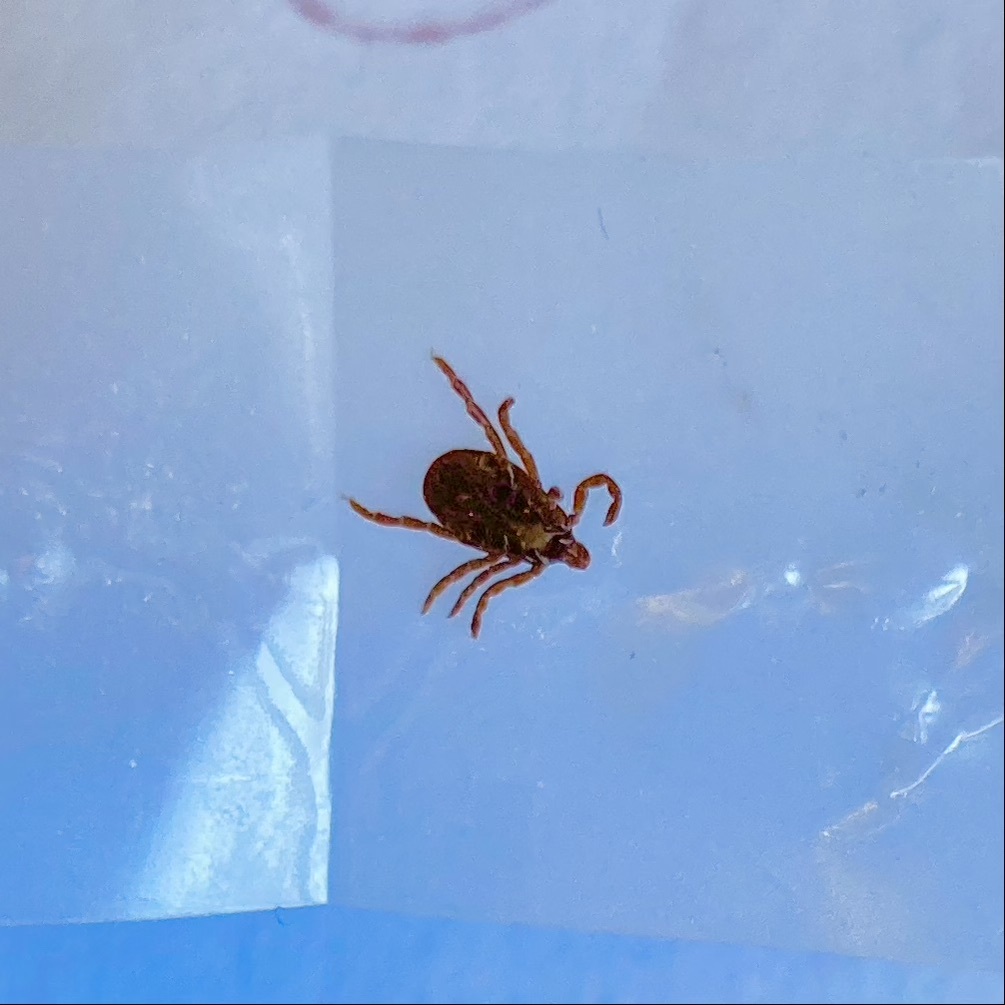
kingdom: Animalia
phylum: Arthropoda
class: Arachnida
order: Ixodida
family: Ixodidae
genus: Dermacentor
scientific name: Dermacentor variabilis
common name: American dog tick
